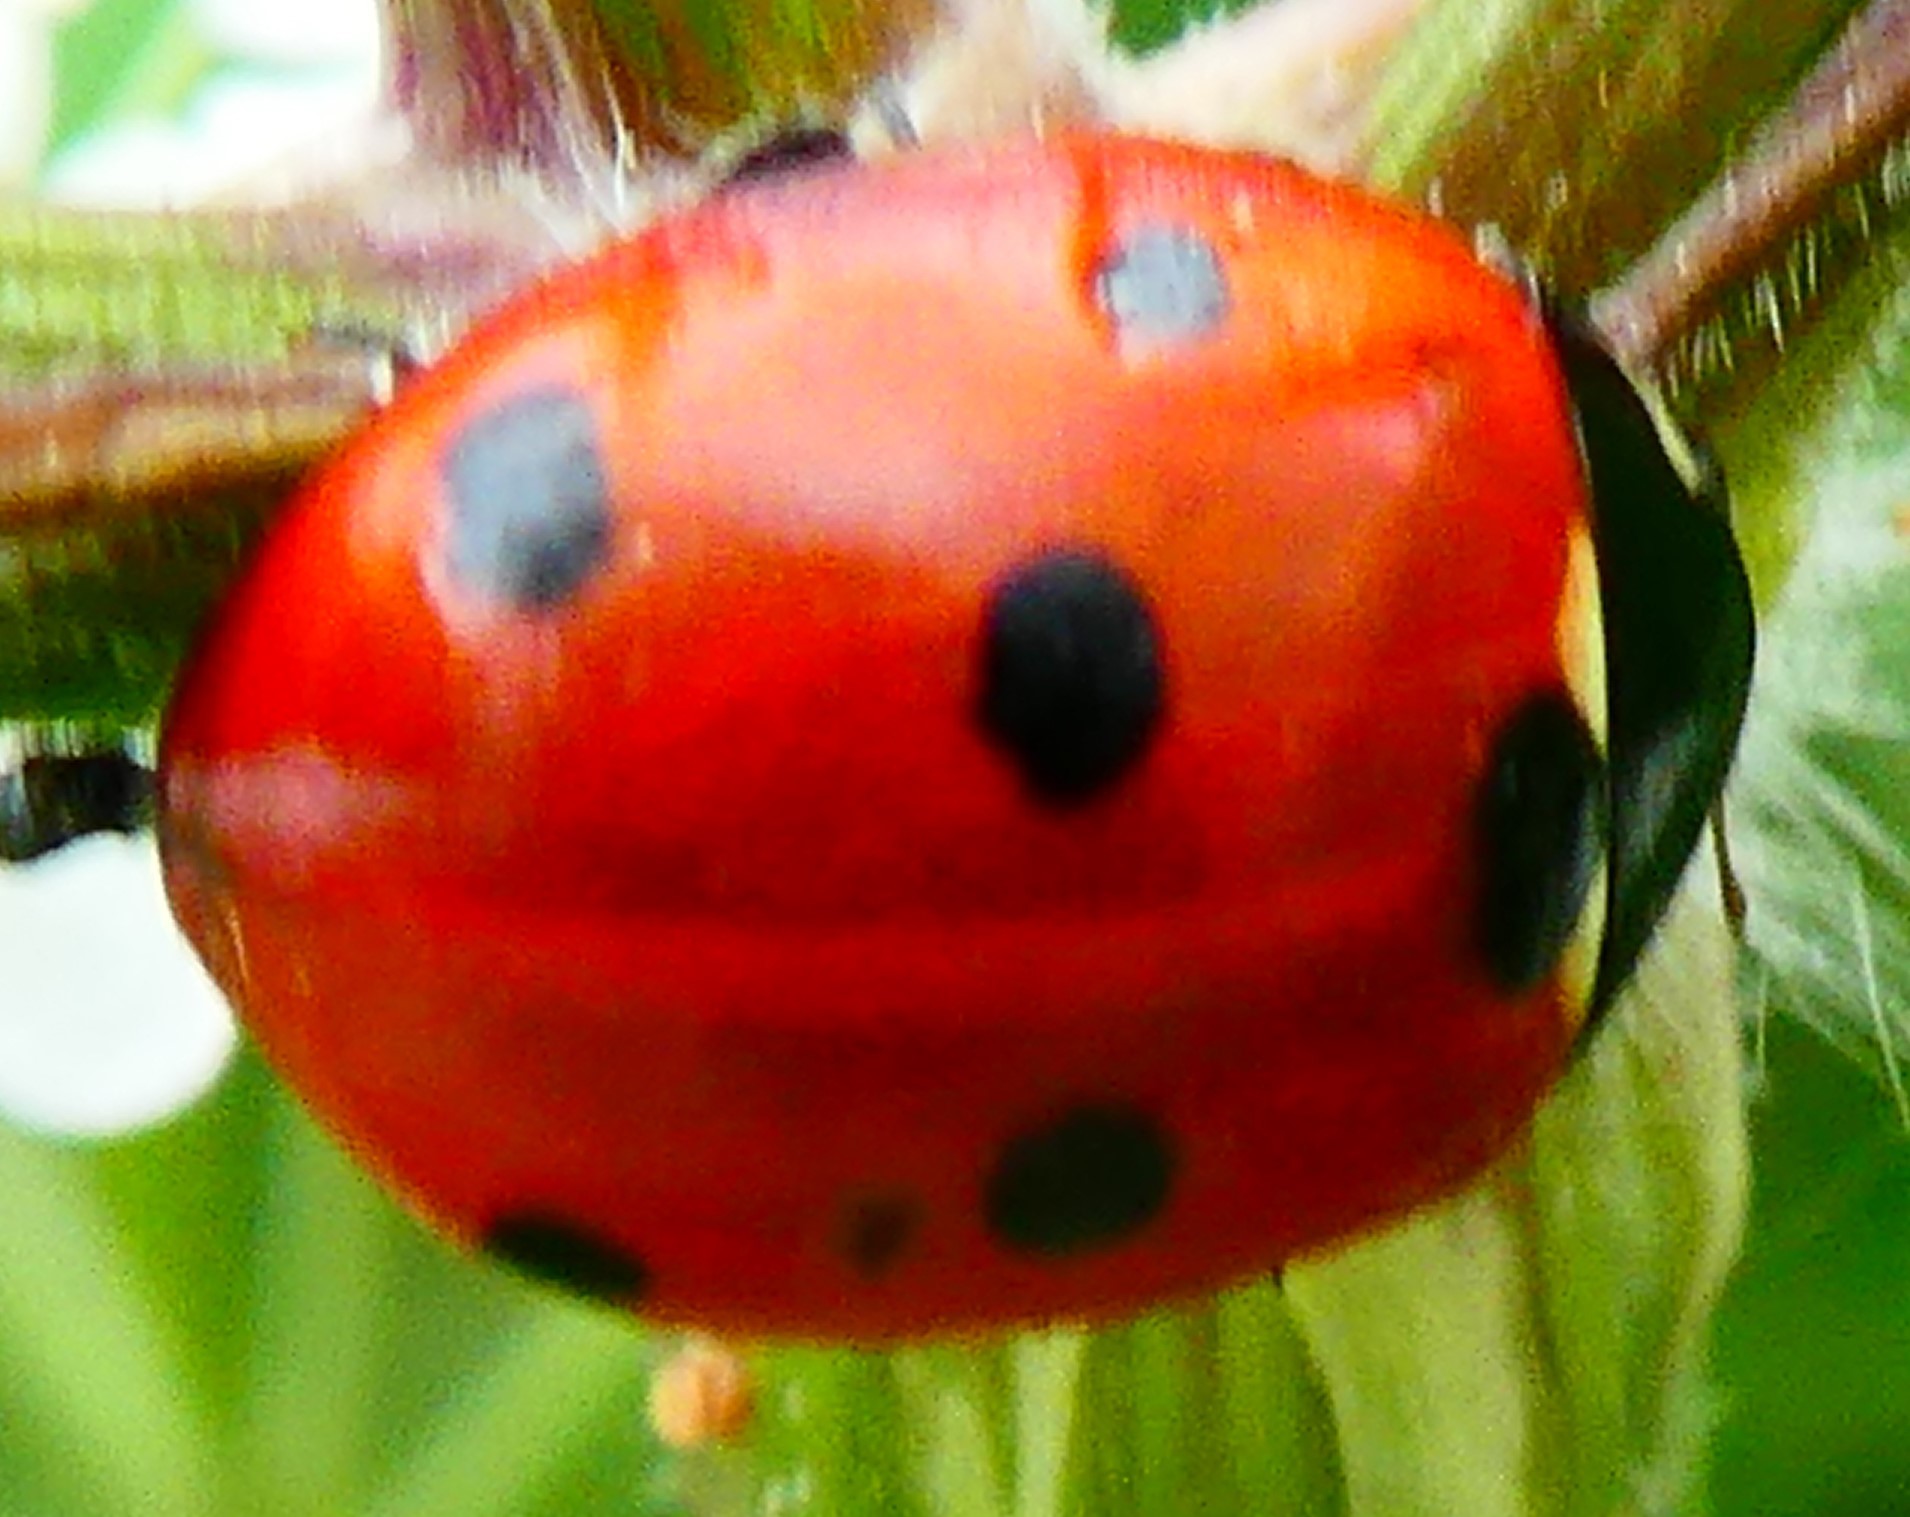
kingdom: Animalia
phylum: Arthropoda
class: Insecta
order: Coleoptera
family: Coccinellidae
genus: Coccinella
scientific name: Coccinella septempunctata
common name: Sevenspotted lady beetle
